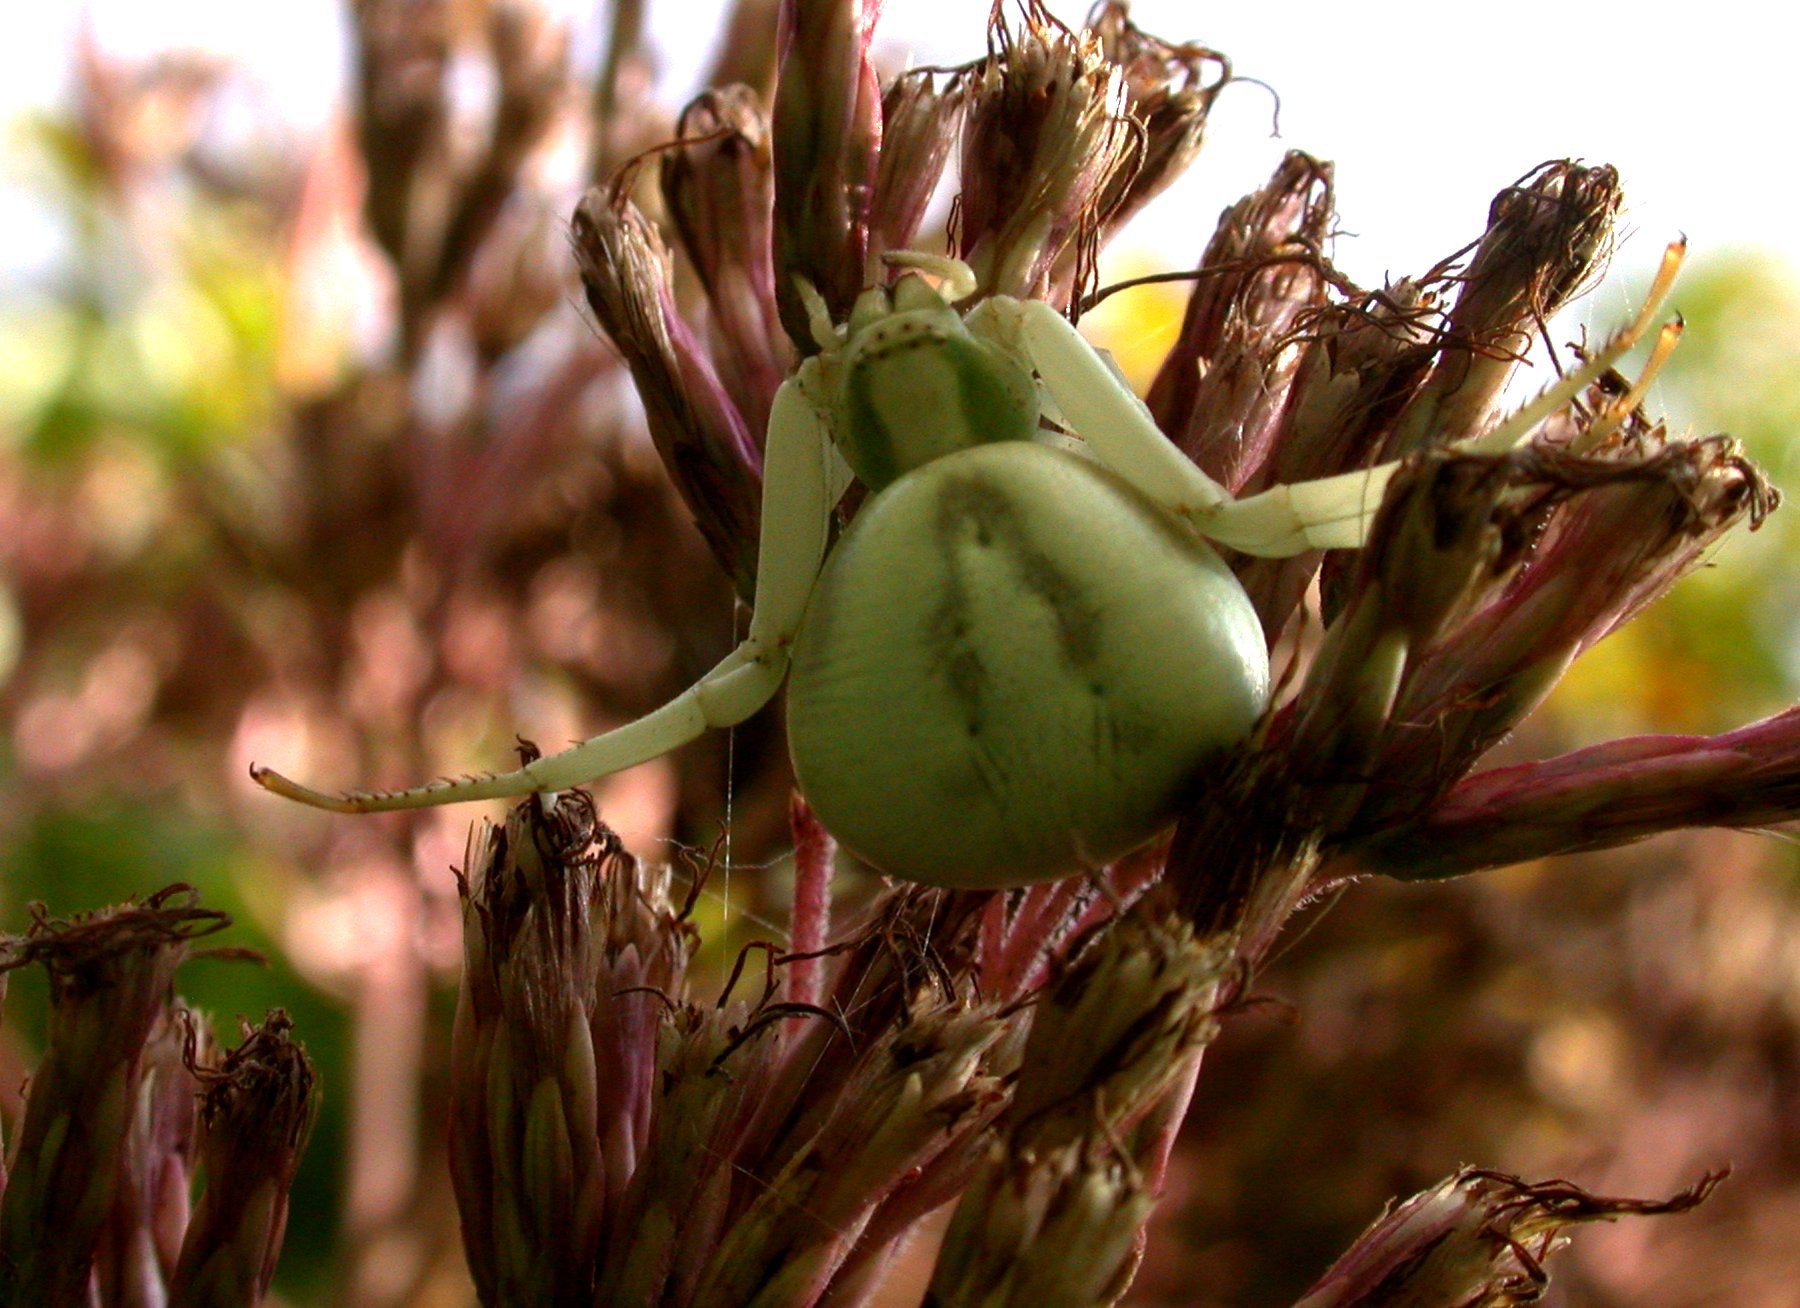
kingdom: Animalia
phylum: Arthropoda
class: Arachnida
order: Araneae
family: Thomisidae
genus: Misumenoides
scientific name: Misumenoides formosipes
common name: White-banded crab spider
